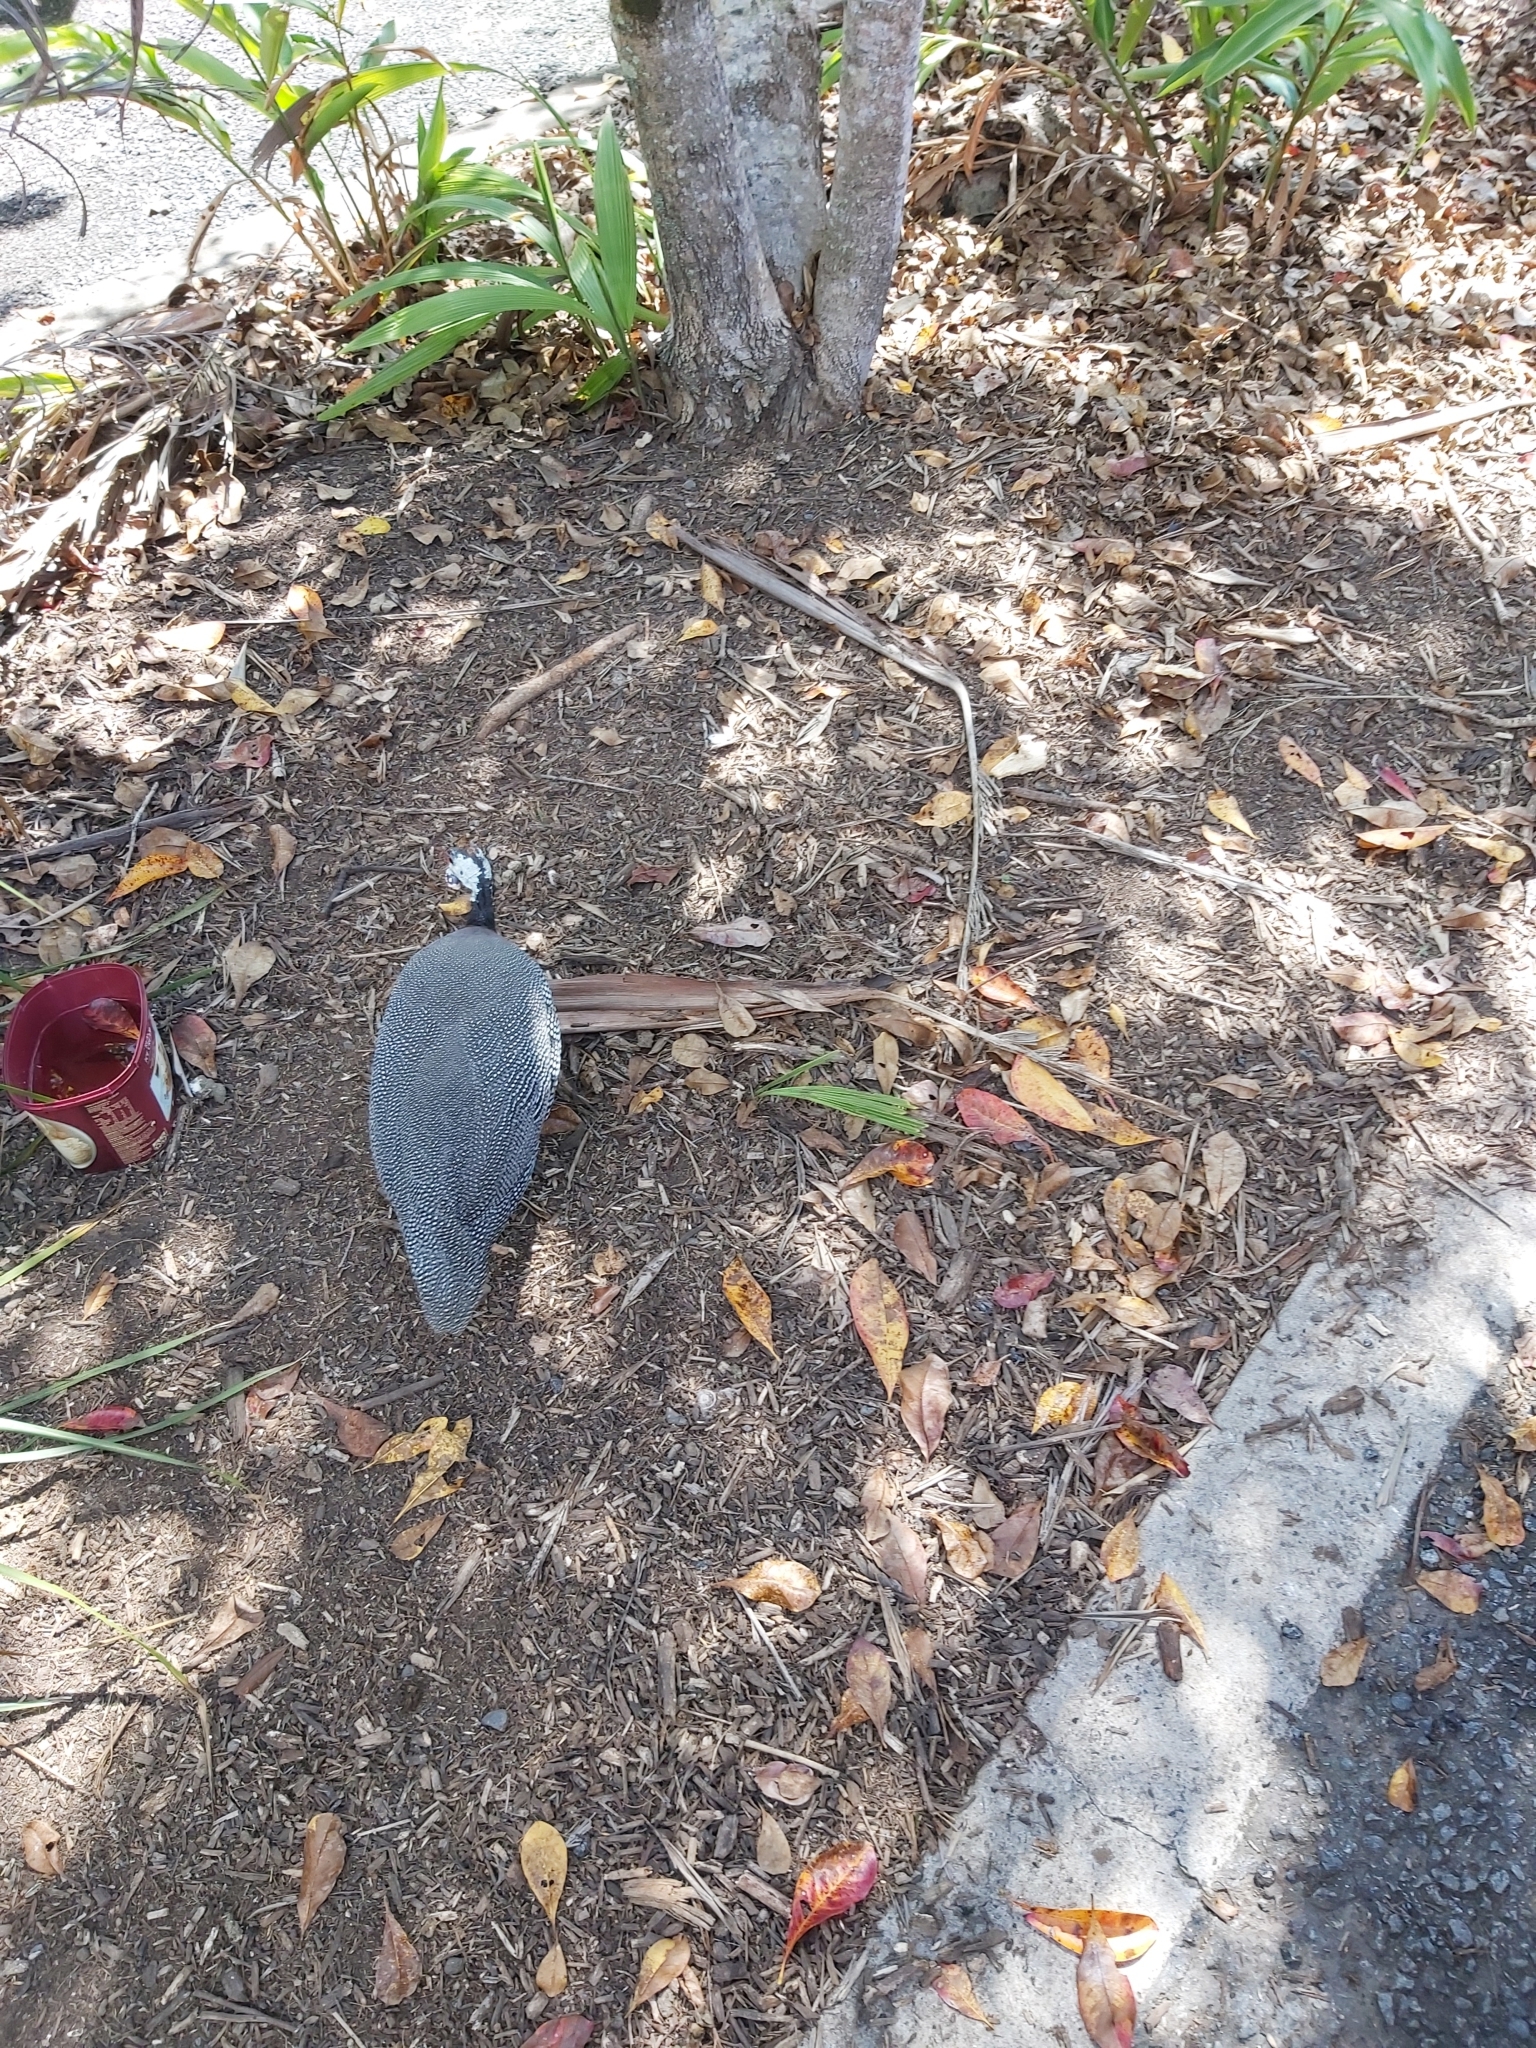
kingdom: Animalia
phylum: Chordata
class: Aves
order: Galliformes
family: Numididae
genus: Numida
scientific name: Numida meleagris
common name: Helmeted guineafowl
